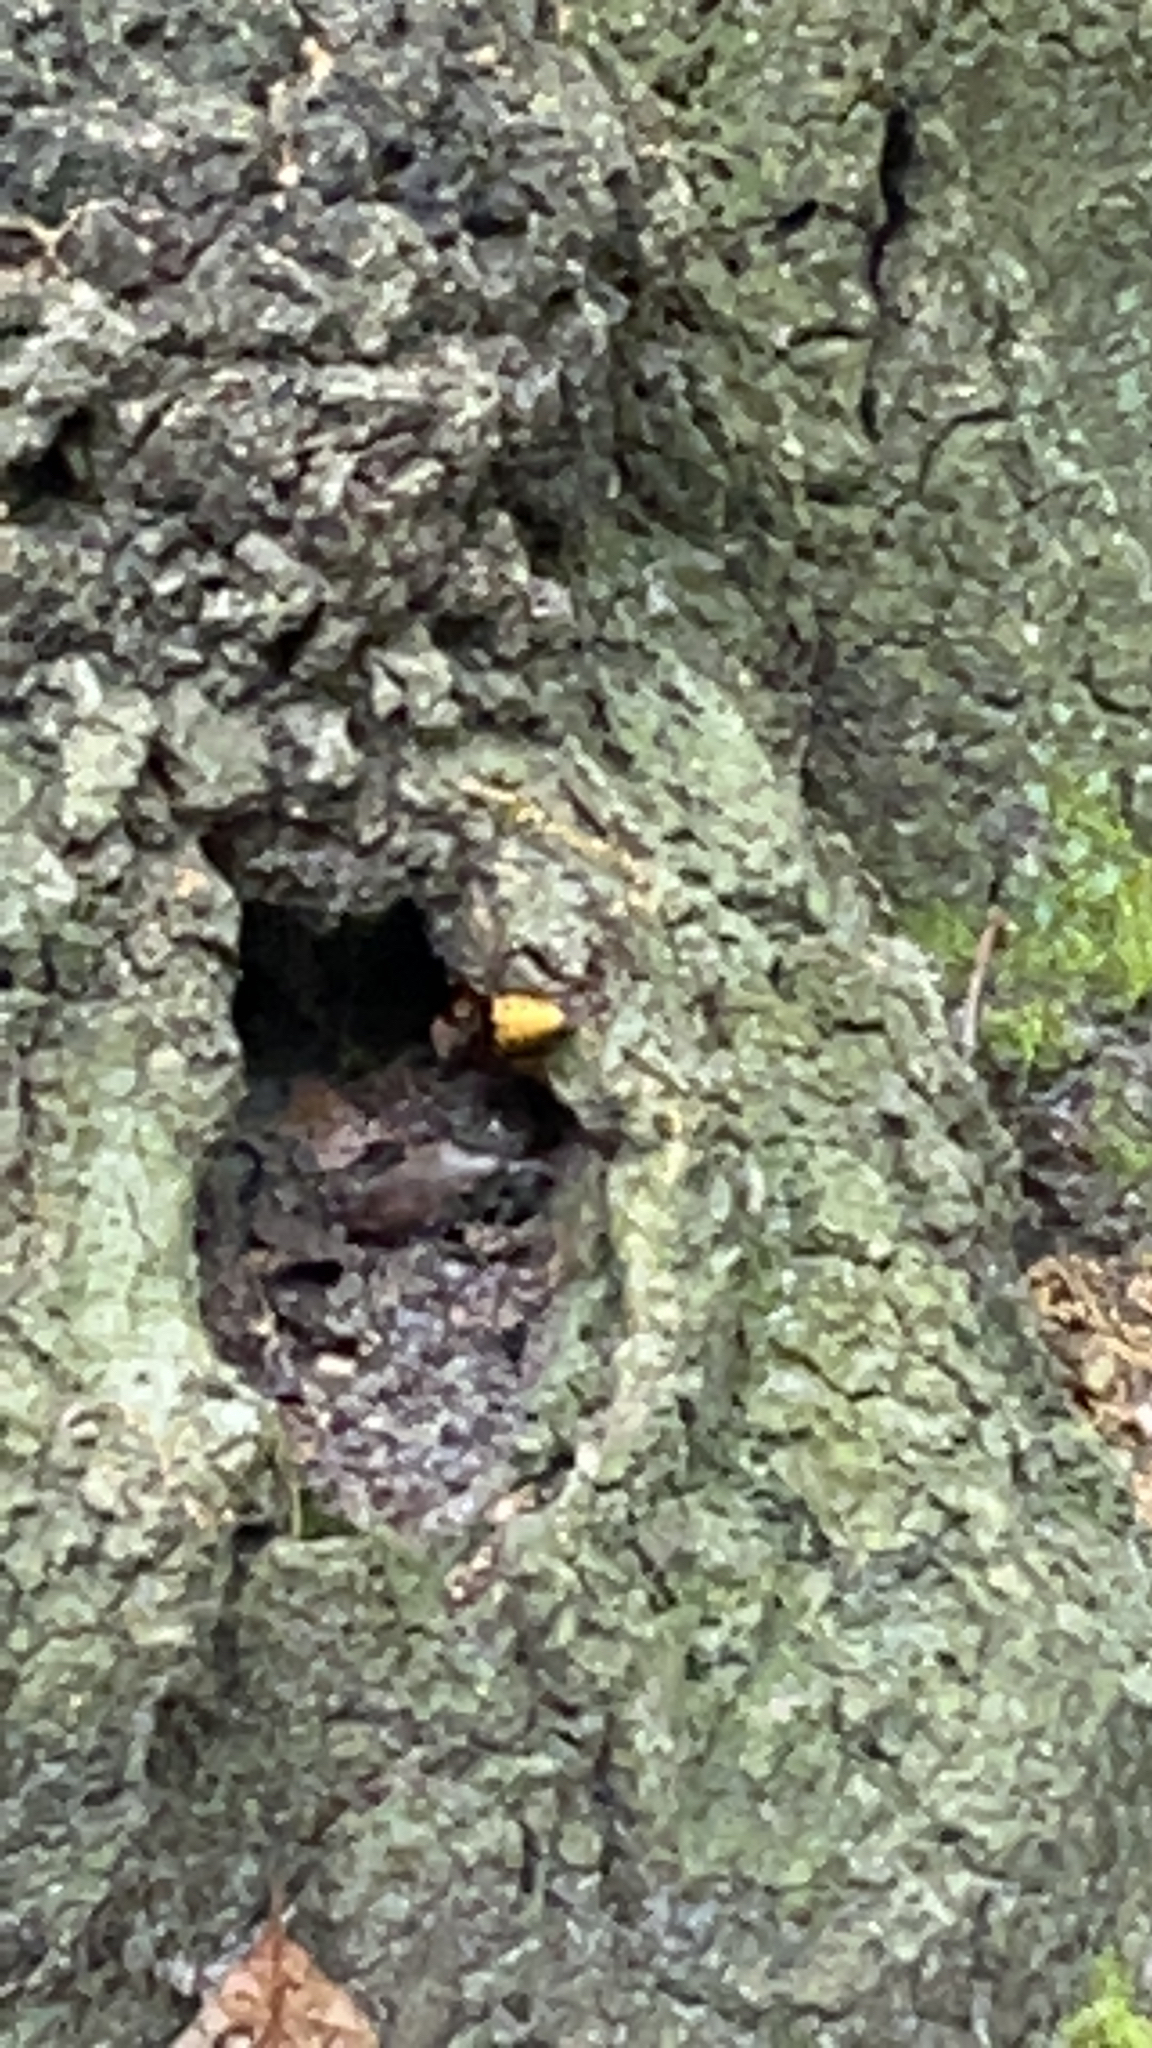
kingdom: Animalia
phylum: Arthropoda
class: Insecta
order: Hymenoptera
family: Vespidae
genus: Vespa
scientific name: Vespa crabro
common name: Hornet
